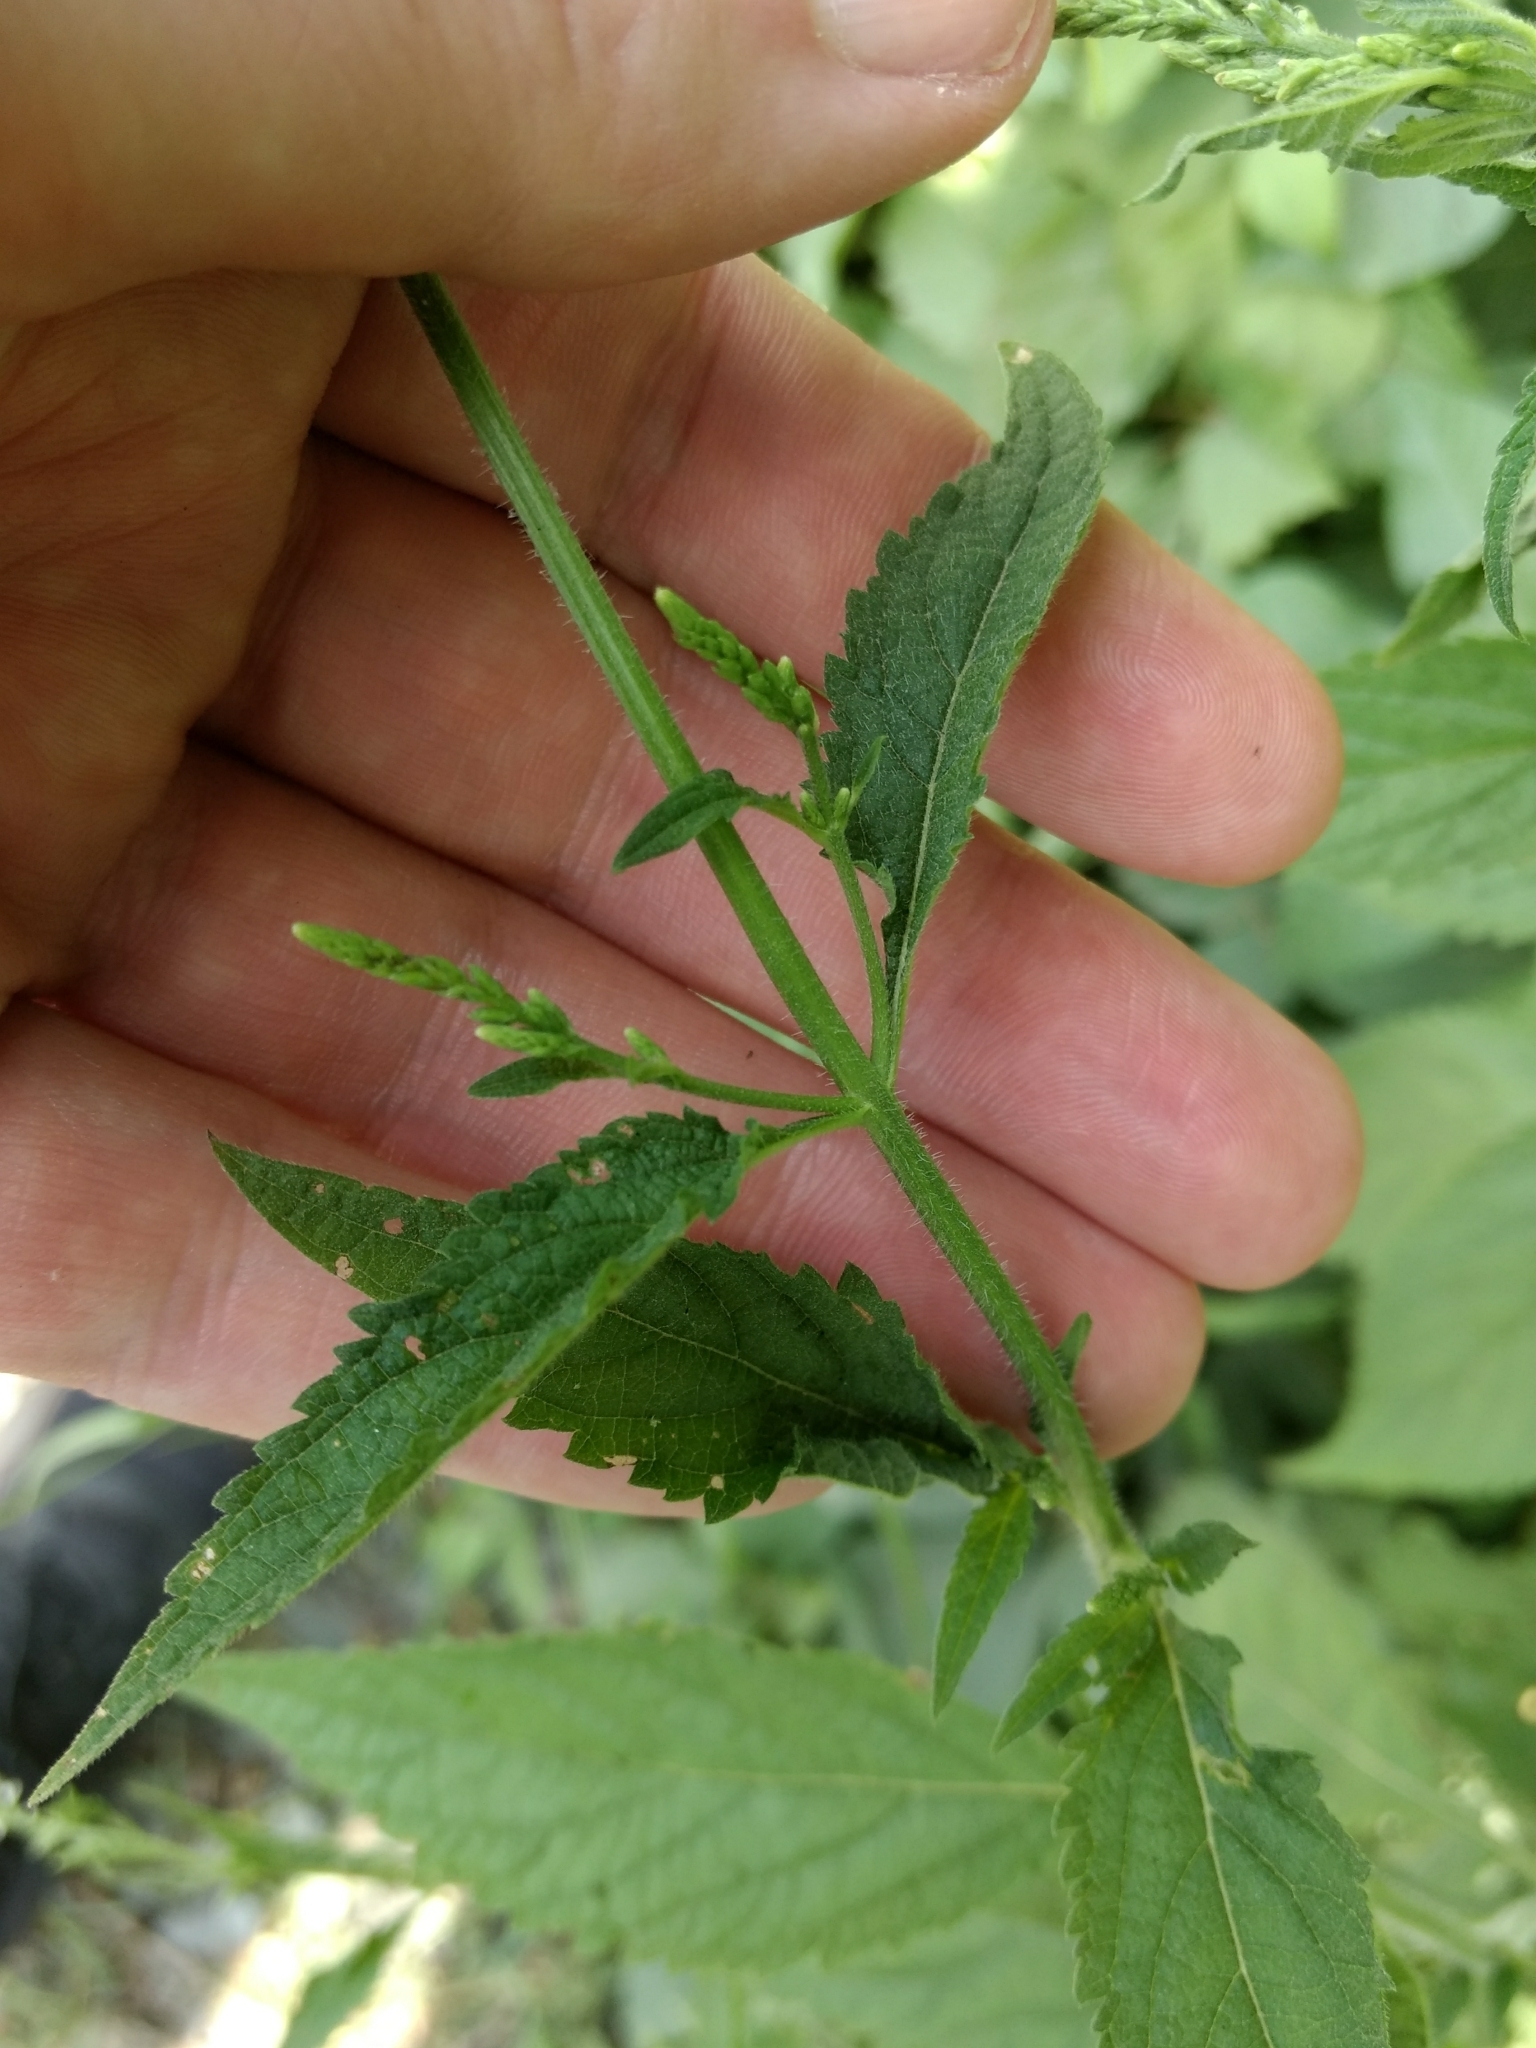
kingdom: Plantae
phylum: Tracheophyta
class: Magnoliopsida
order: Lamiales
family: Verbenaceae
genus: Verbena
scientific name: Verbena urticifolia
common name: Nettle-leaved vervain
